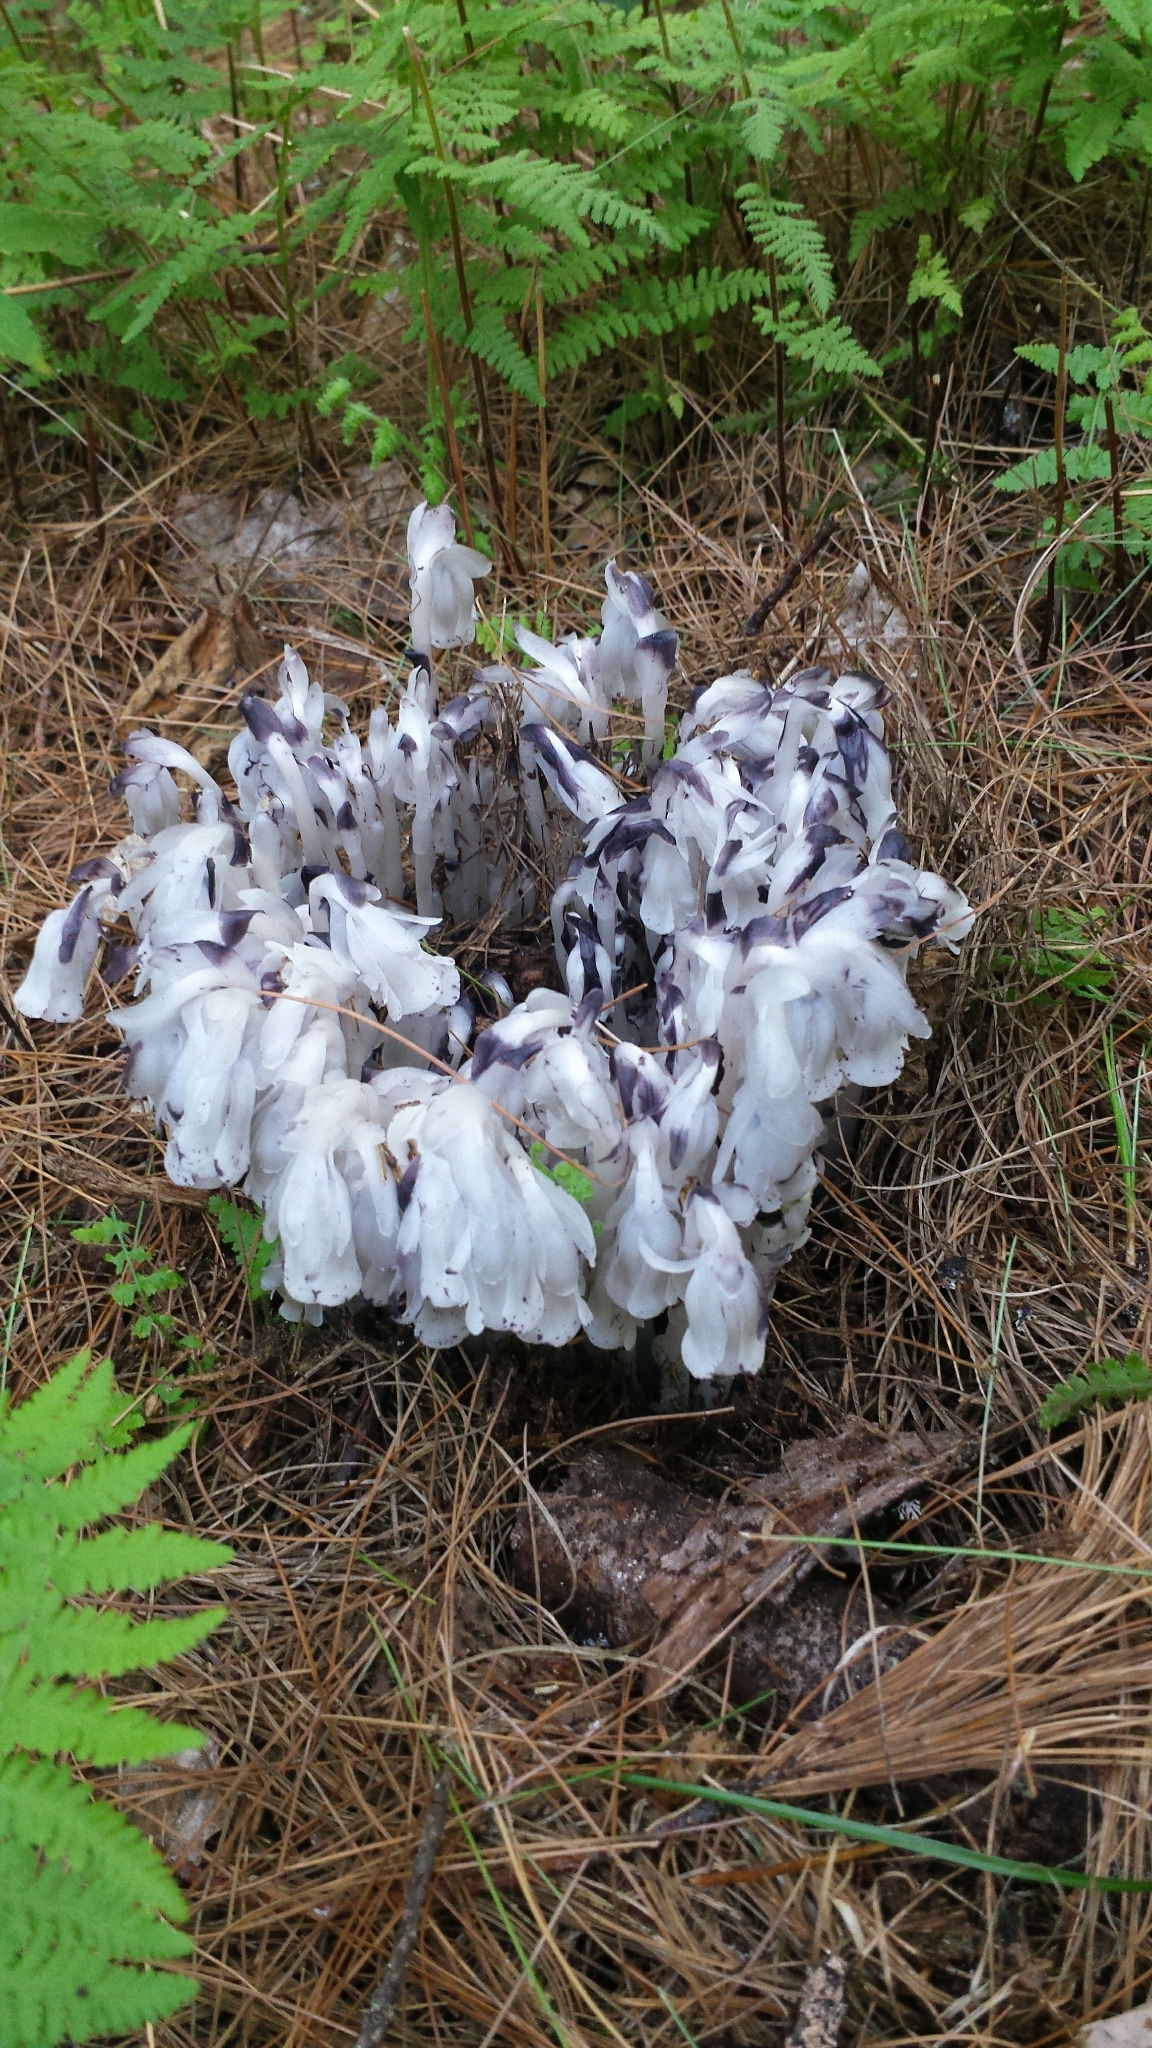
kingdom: Plantae
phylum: Tracheophyta
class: Magnoliopsida
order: Ericales
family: Ericaceae
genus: Monotropa
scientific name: Monotropa uniflora
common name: Convulsion root
